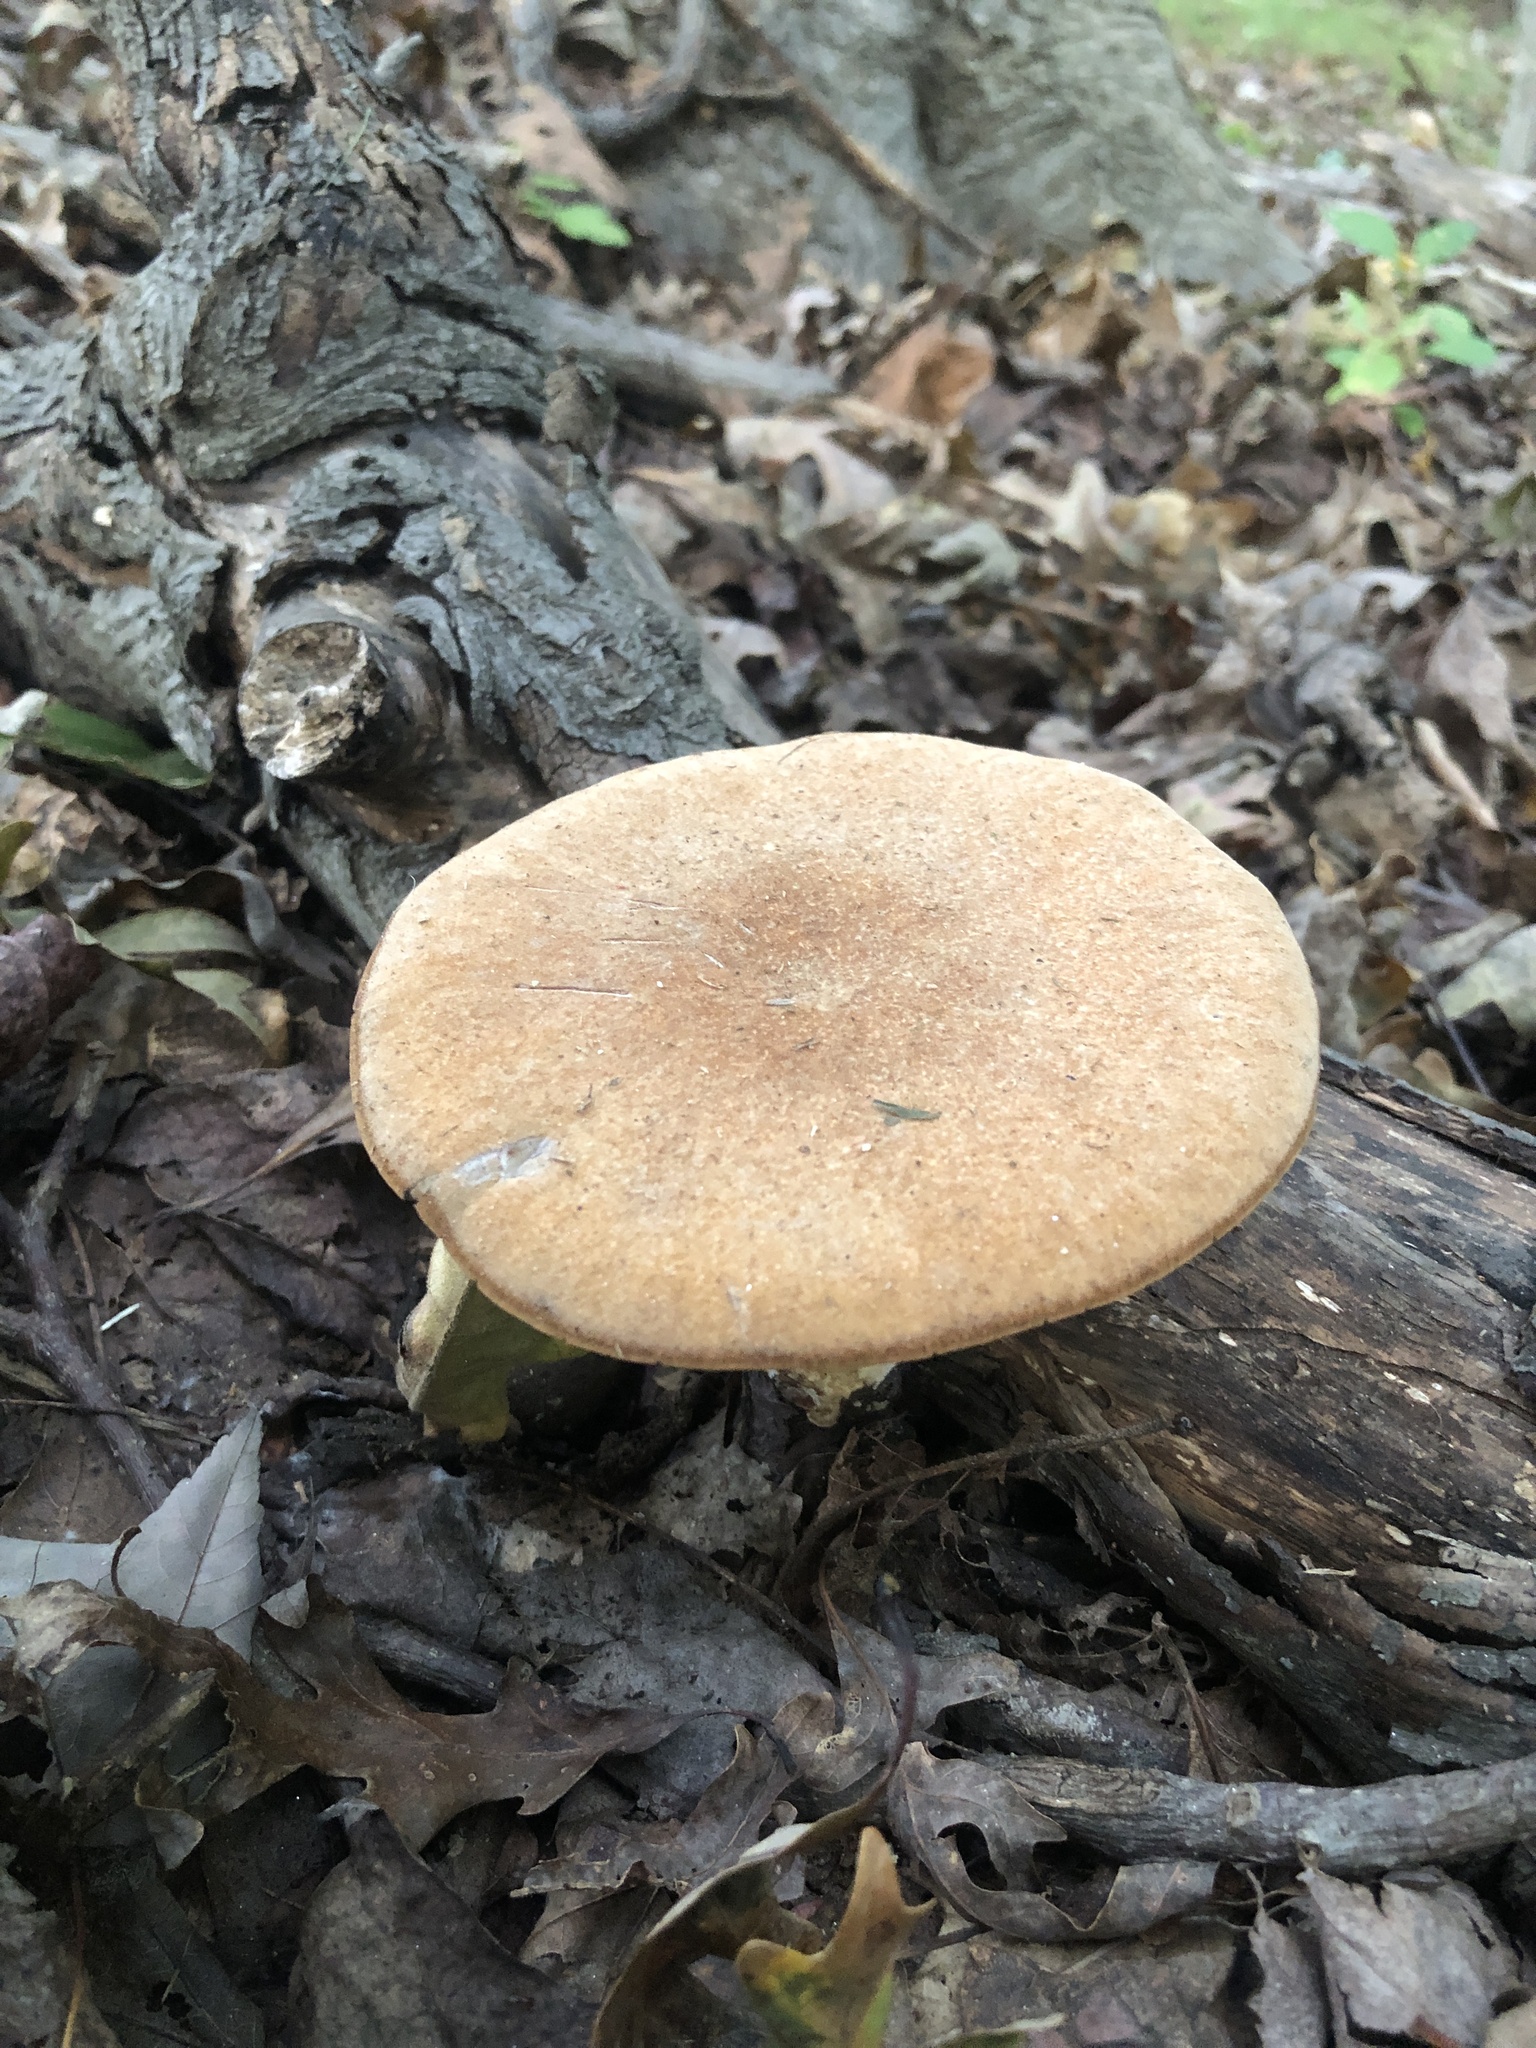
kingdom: Fungi
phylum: Basidiomycota
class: Agaricomycetes
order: Polyporales
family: Polyporaceae
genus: Polyporus
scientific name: Polyporus radicatus
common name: Rooting polypore
